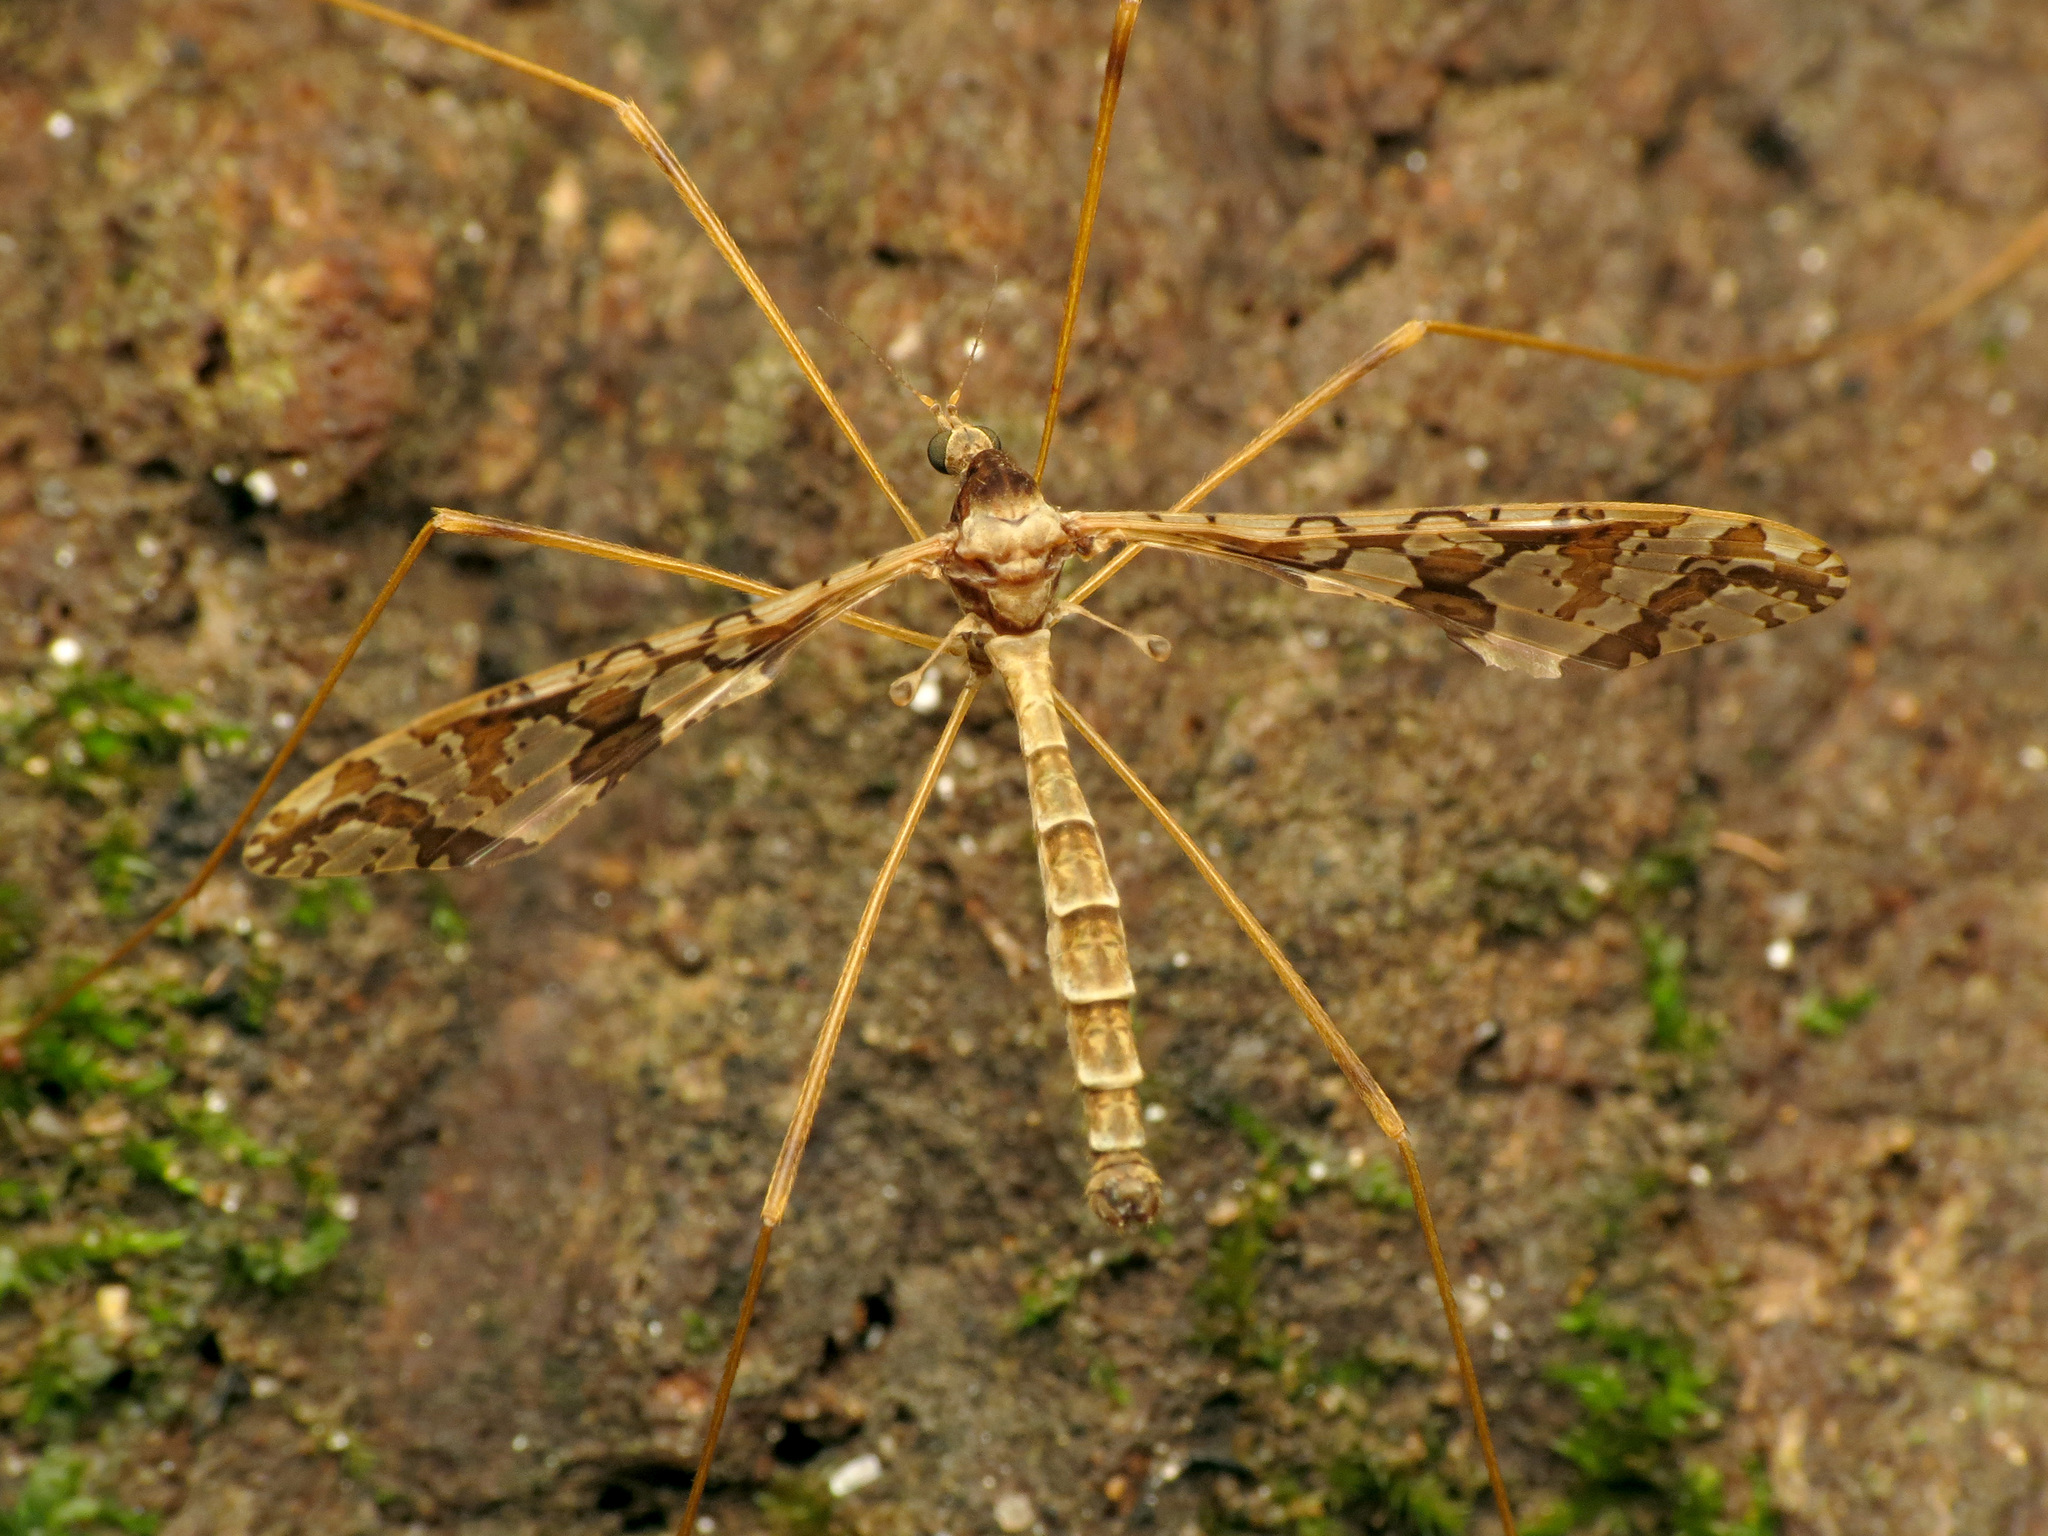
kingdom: Animalia
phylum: Arthropoda
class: Insecta
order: Diptera
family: Limoniidae
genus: Epiphragma
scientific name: Epiphragma solatrix
